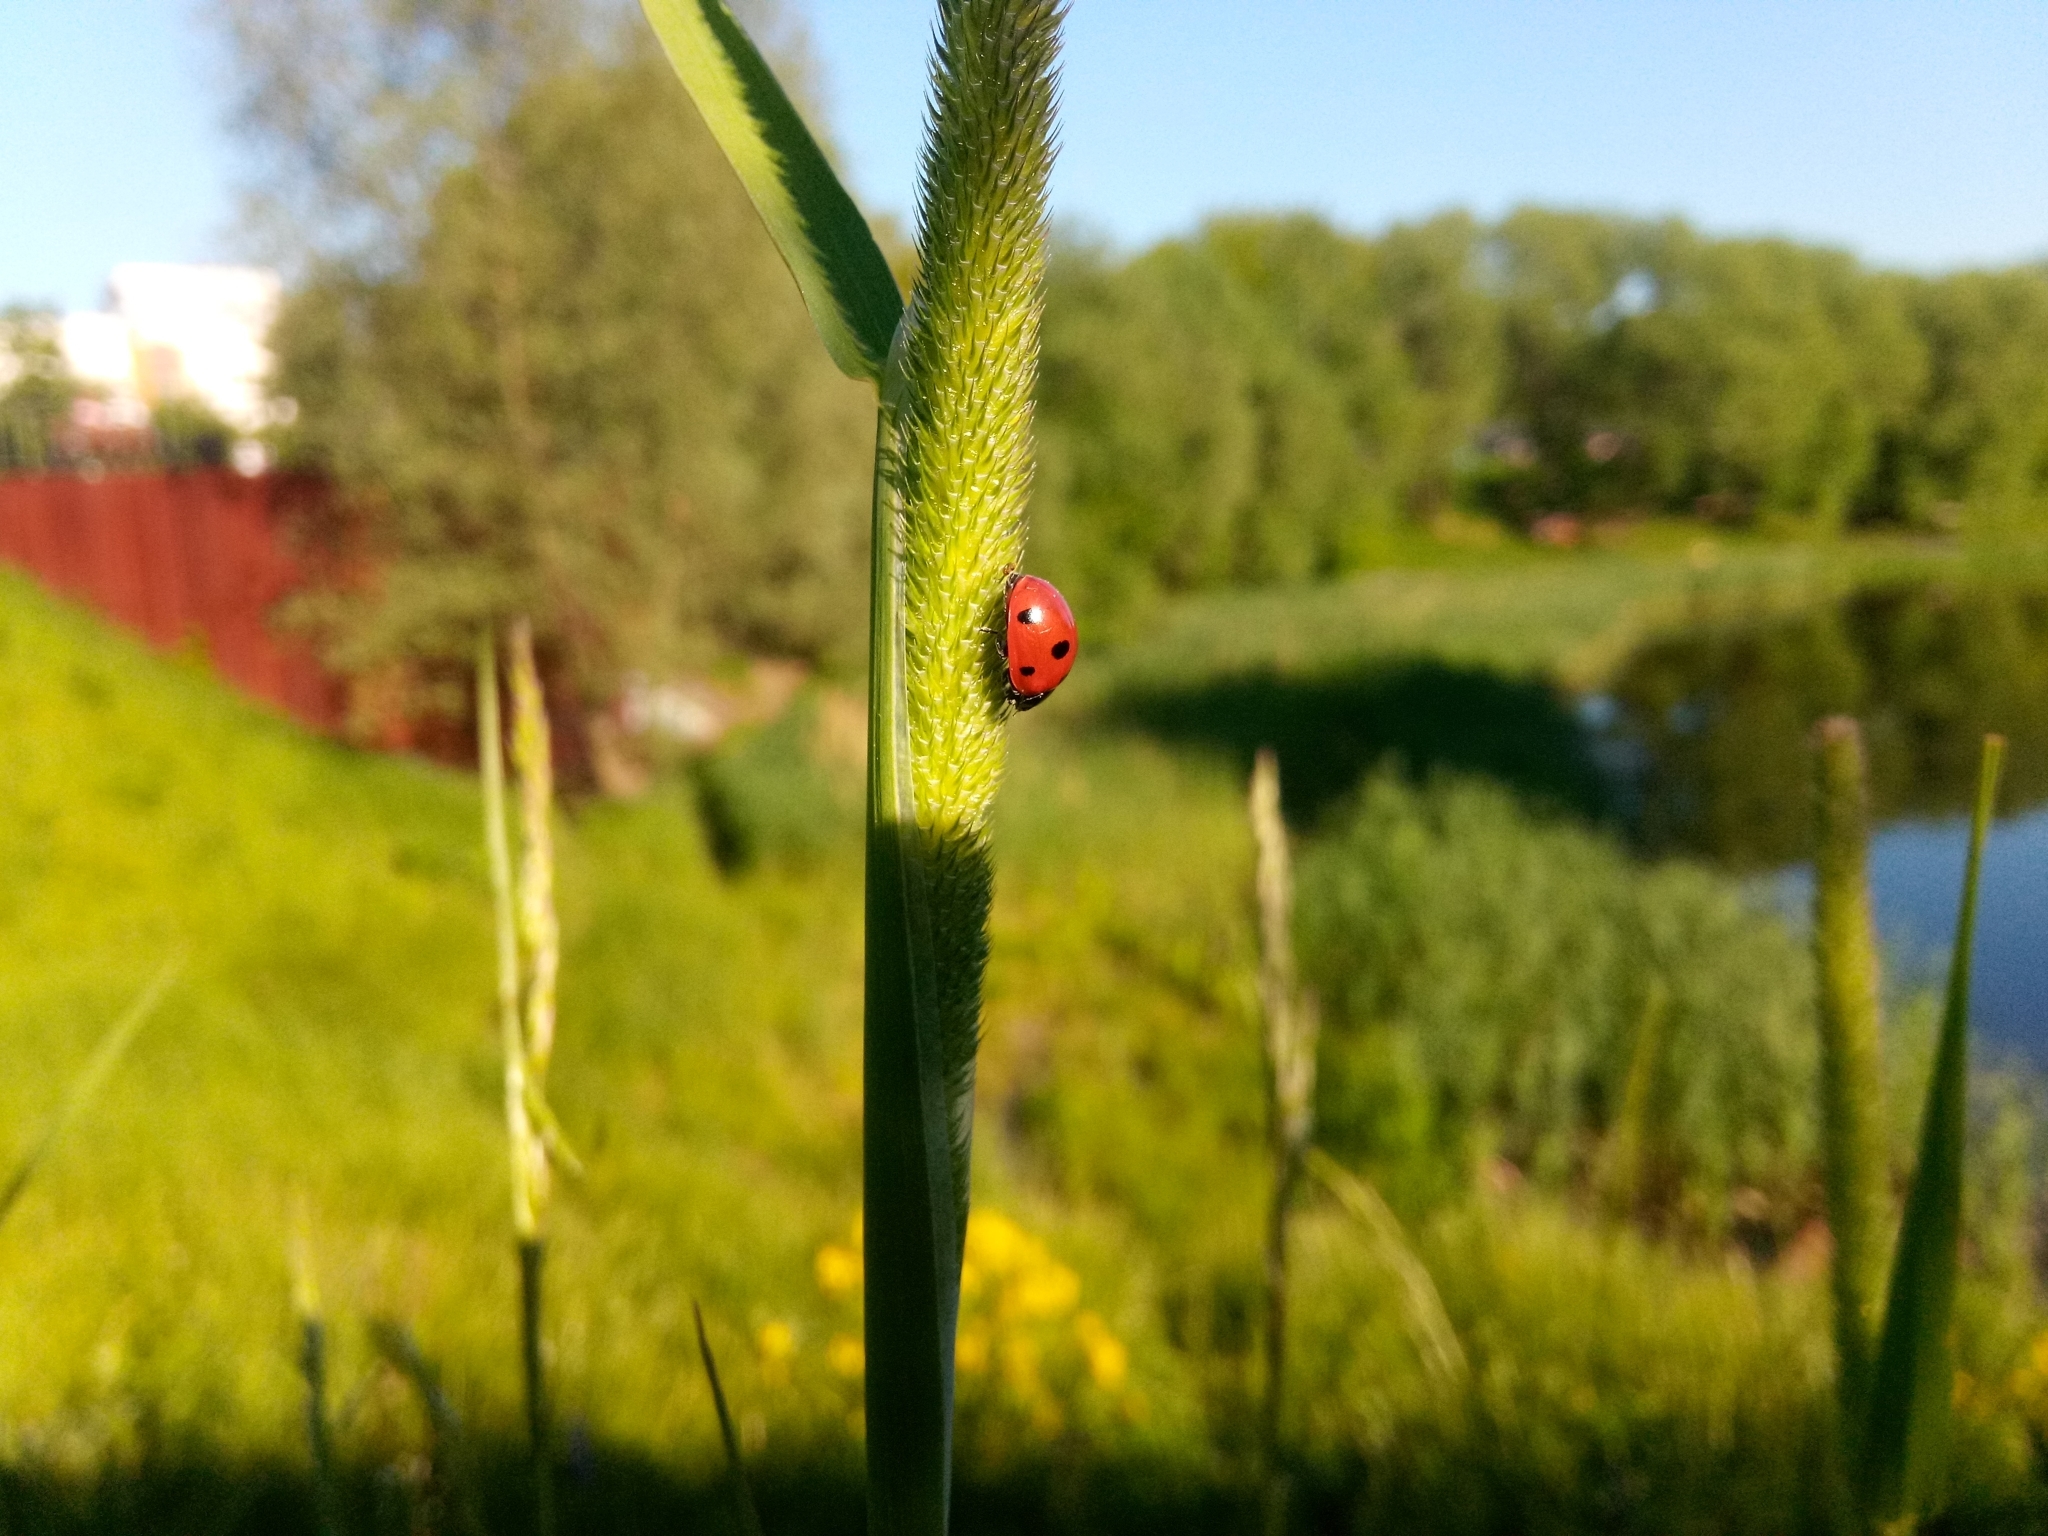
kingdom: Plantae
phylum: Tracheophyta
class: Liliopsida
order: Poales
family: Poaceae
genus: Phleum
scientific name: Phleum pratense
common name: Timothy grass
